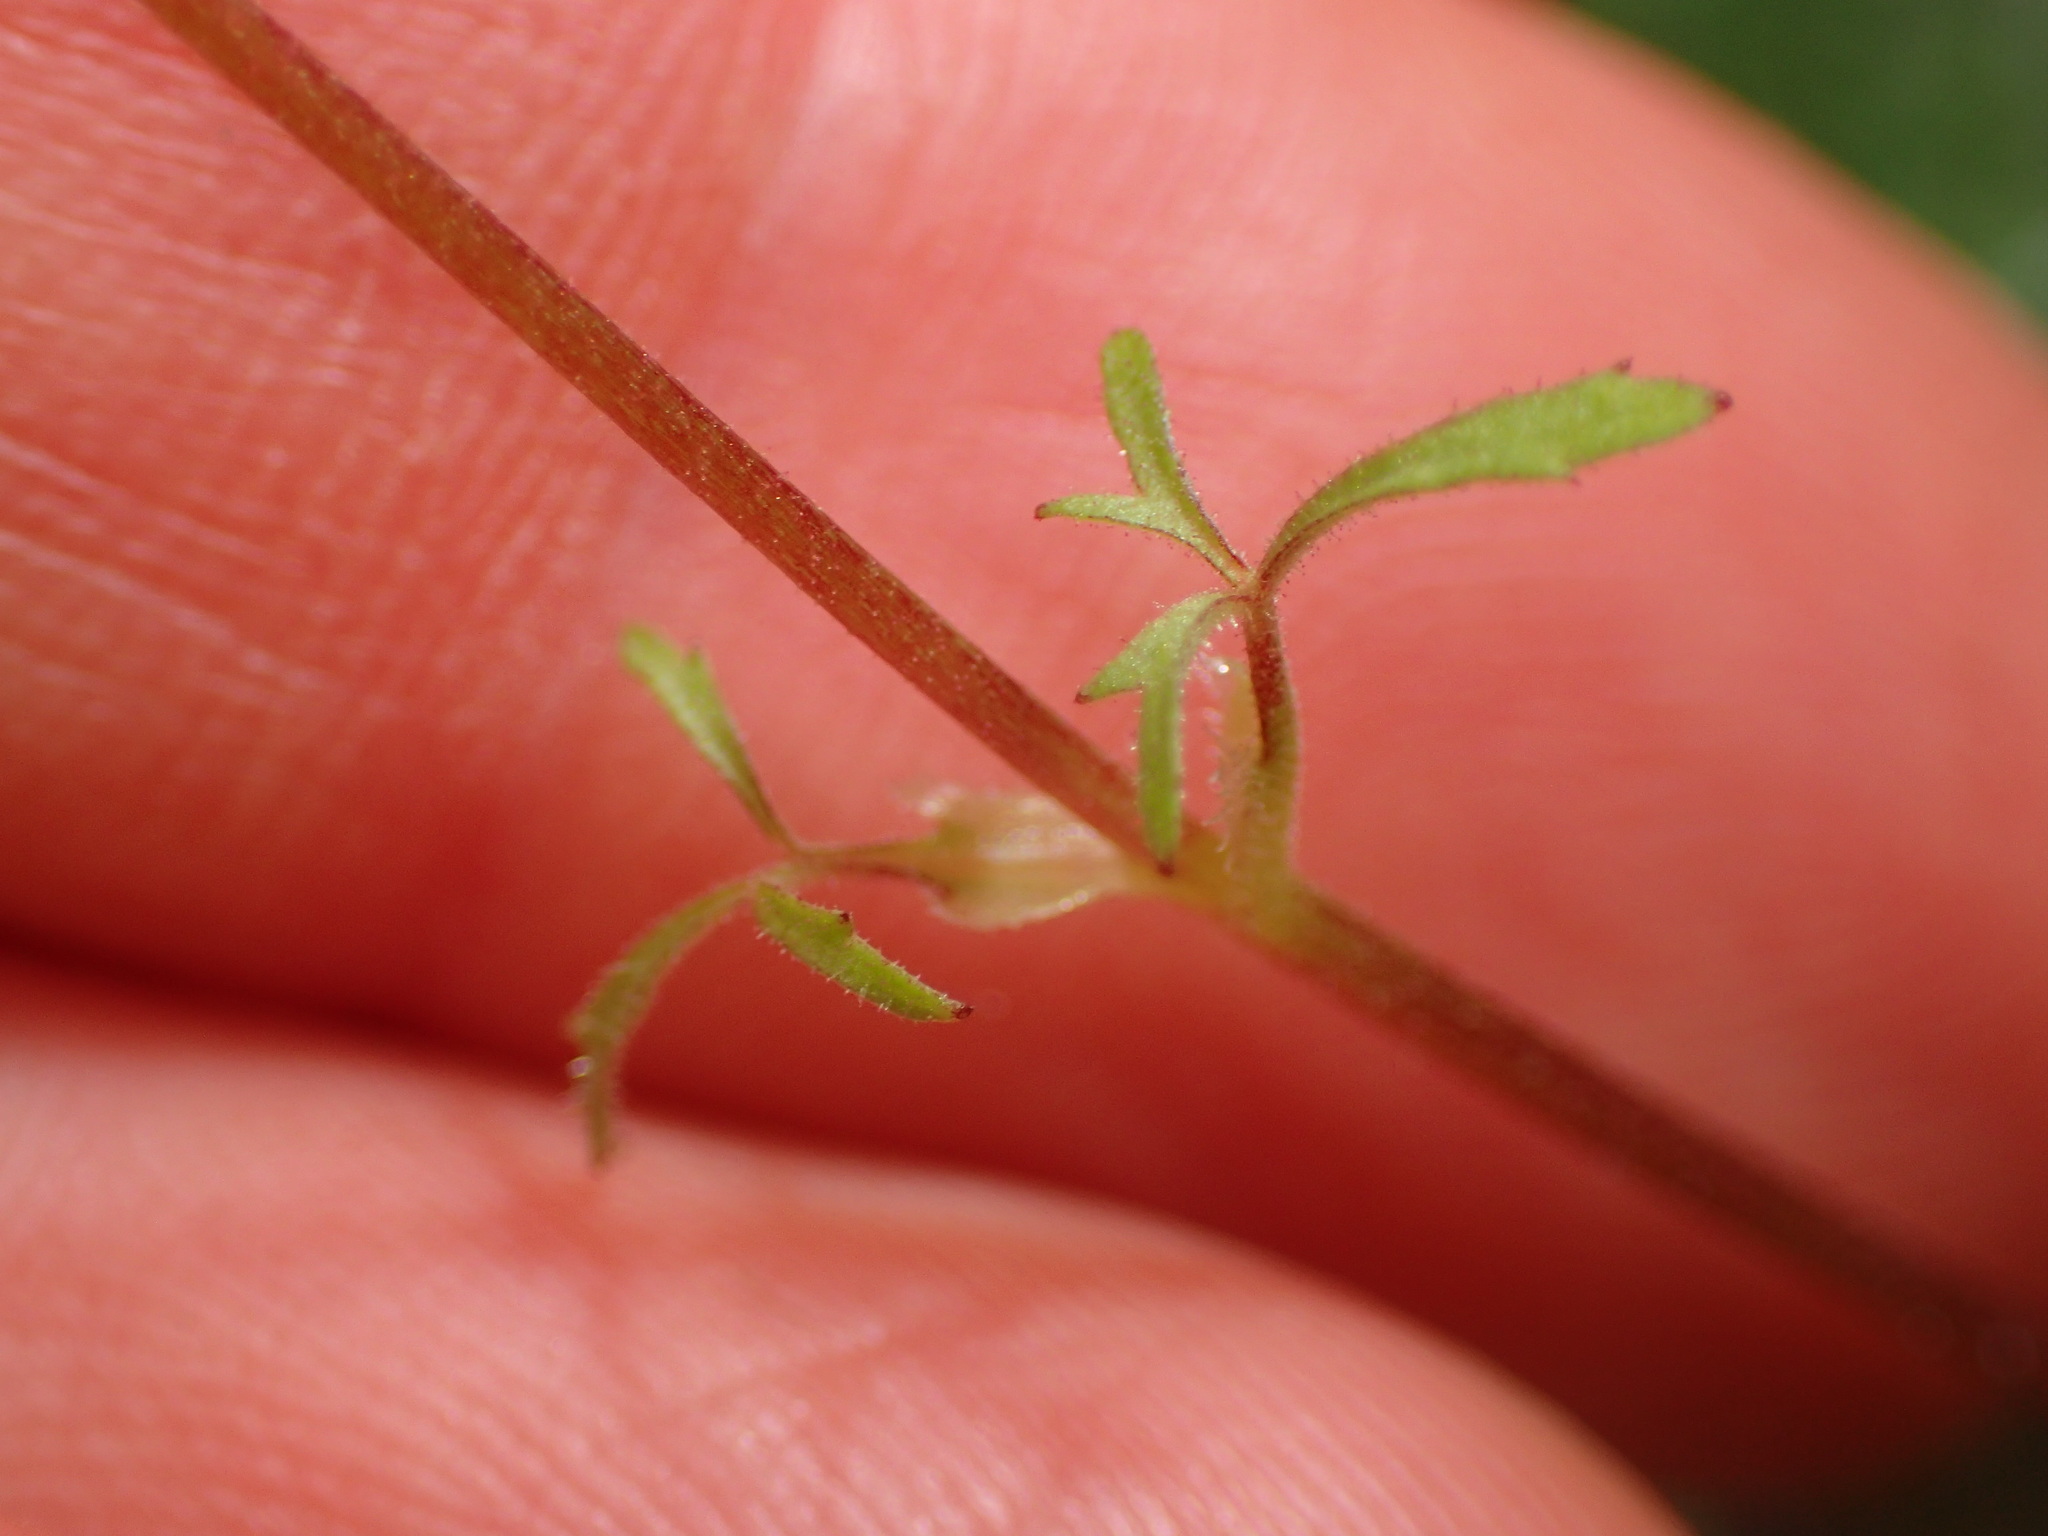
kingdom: Plantae
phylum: Tracheophyta
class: Magnoliopsida
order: Saxifragales
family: Saxifragaceae
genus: Lithophragma
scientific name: Lithophragma cymbalaria
